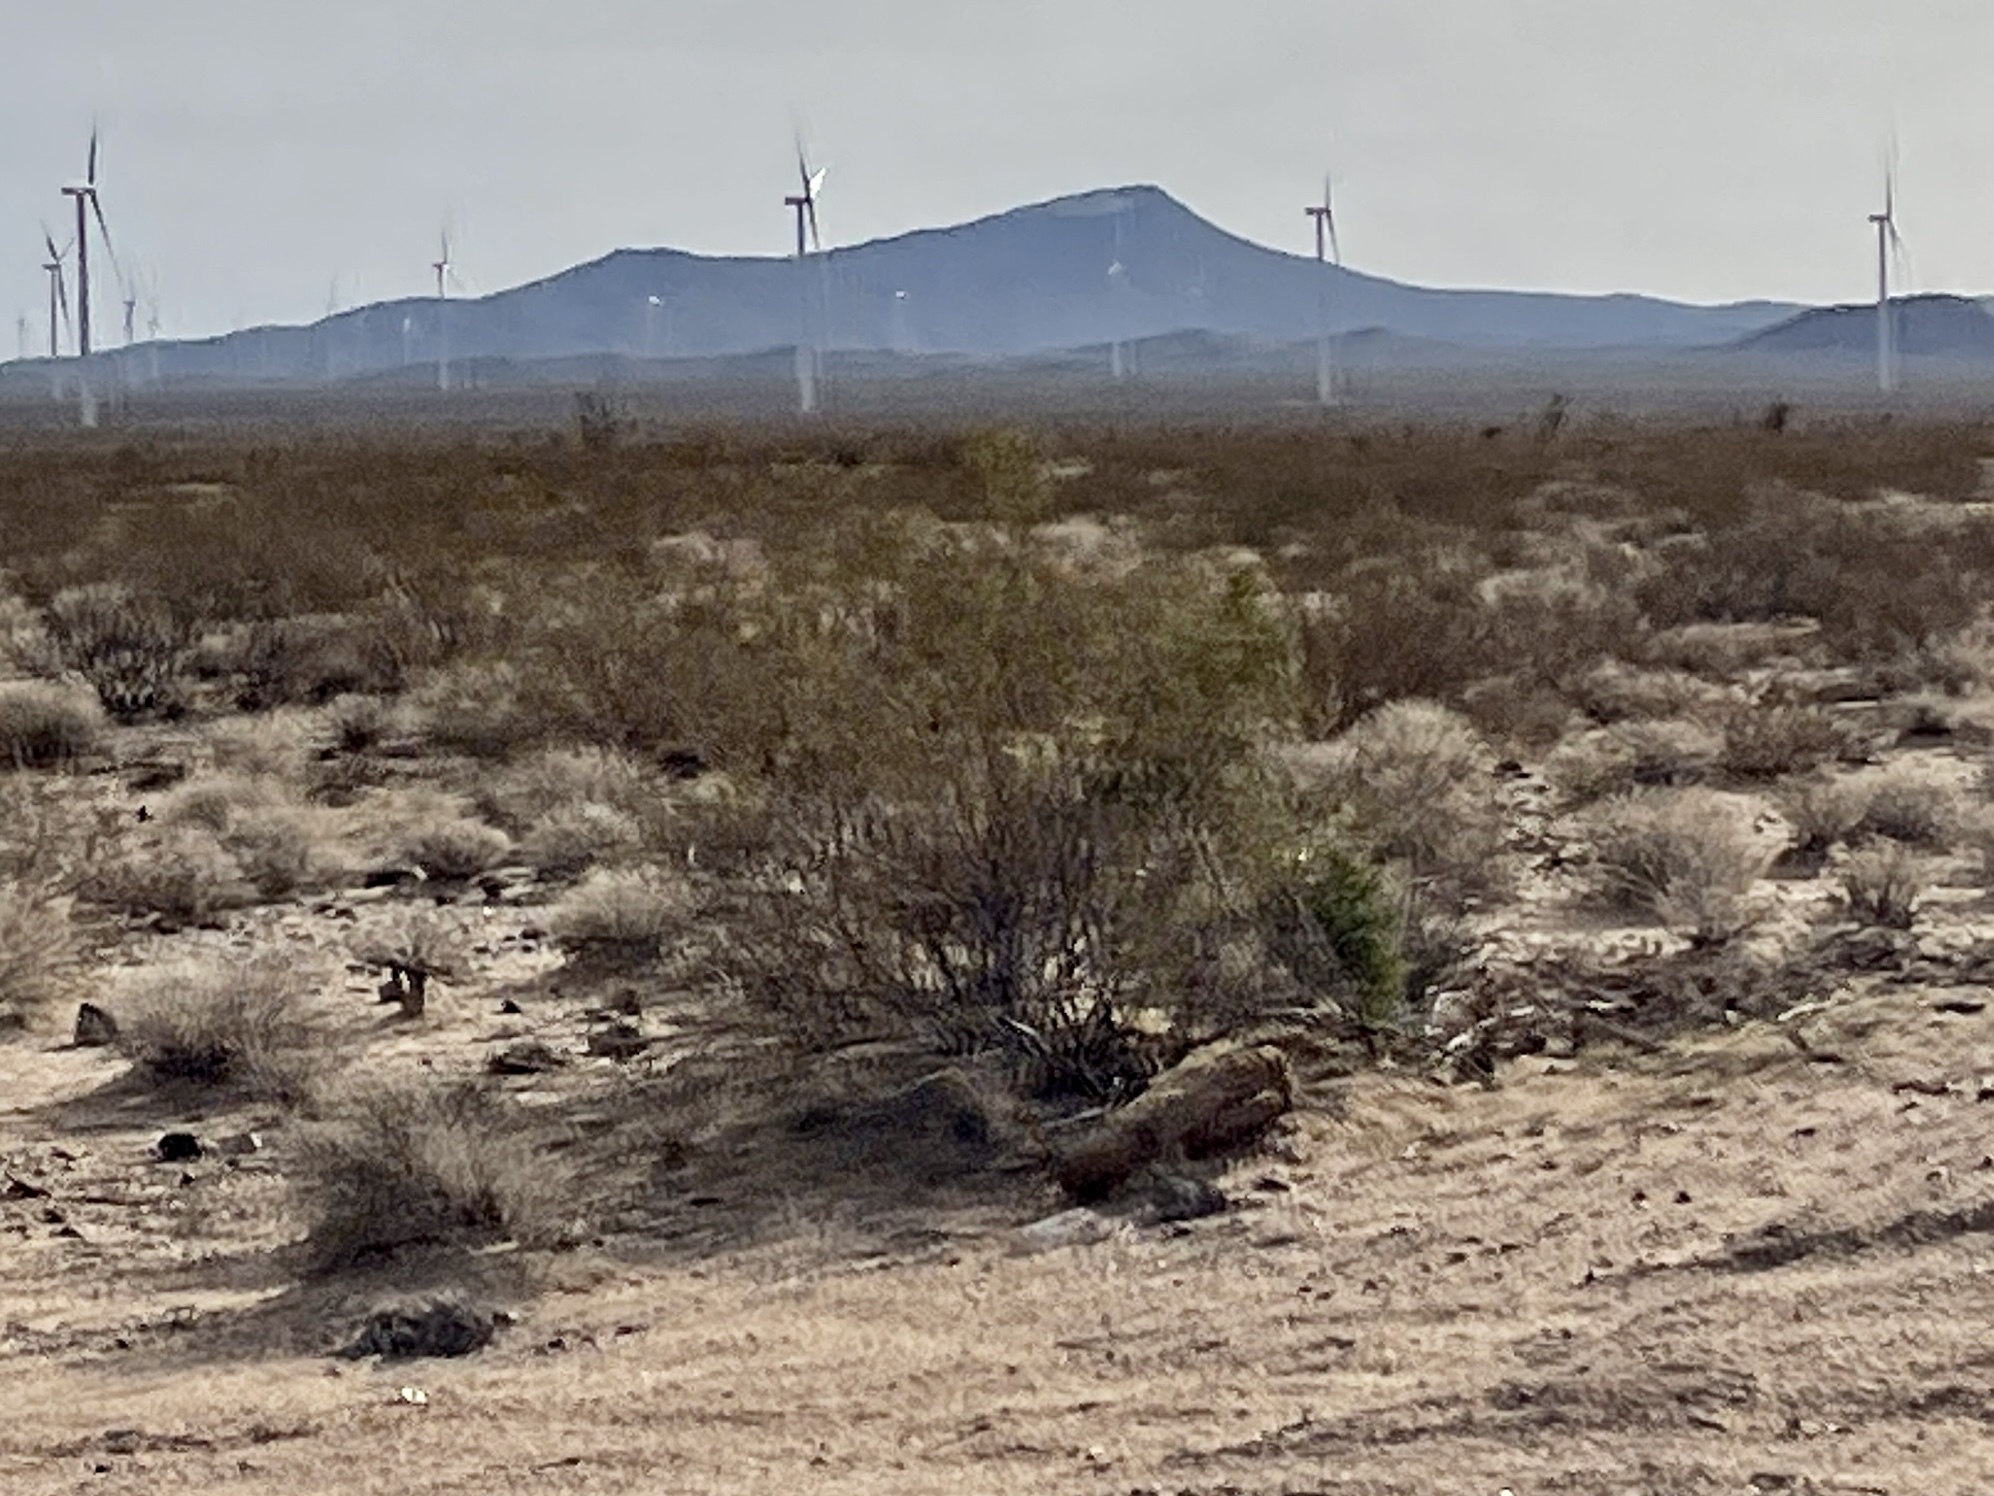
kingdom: Plantae
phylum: Tracheophyta
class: Magnoliopsida
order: Zygophyllales
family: Zygophyllaceae
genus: Larrea
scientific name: Larrea tridentata
